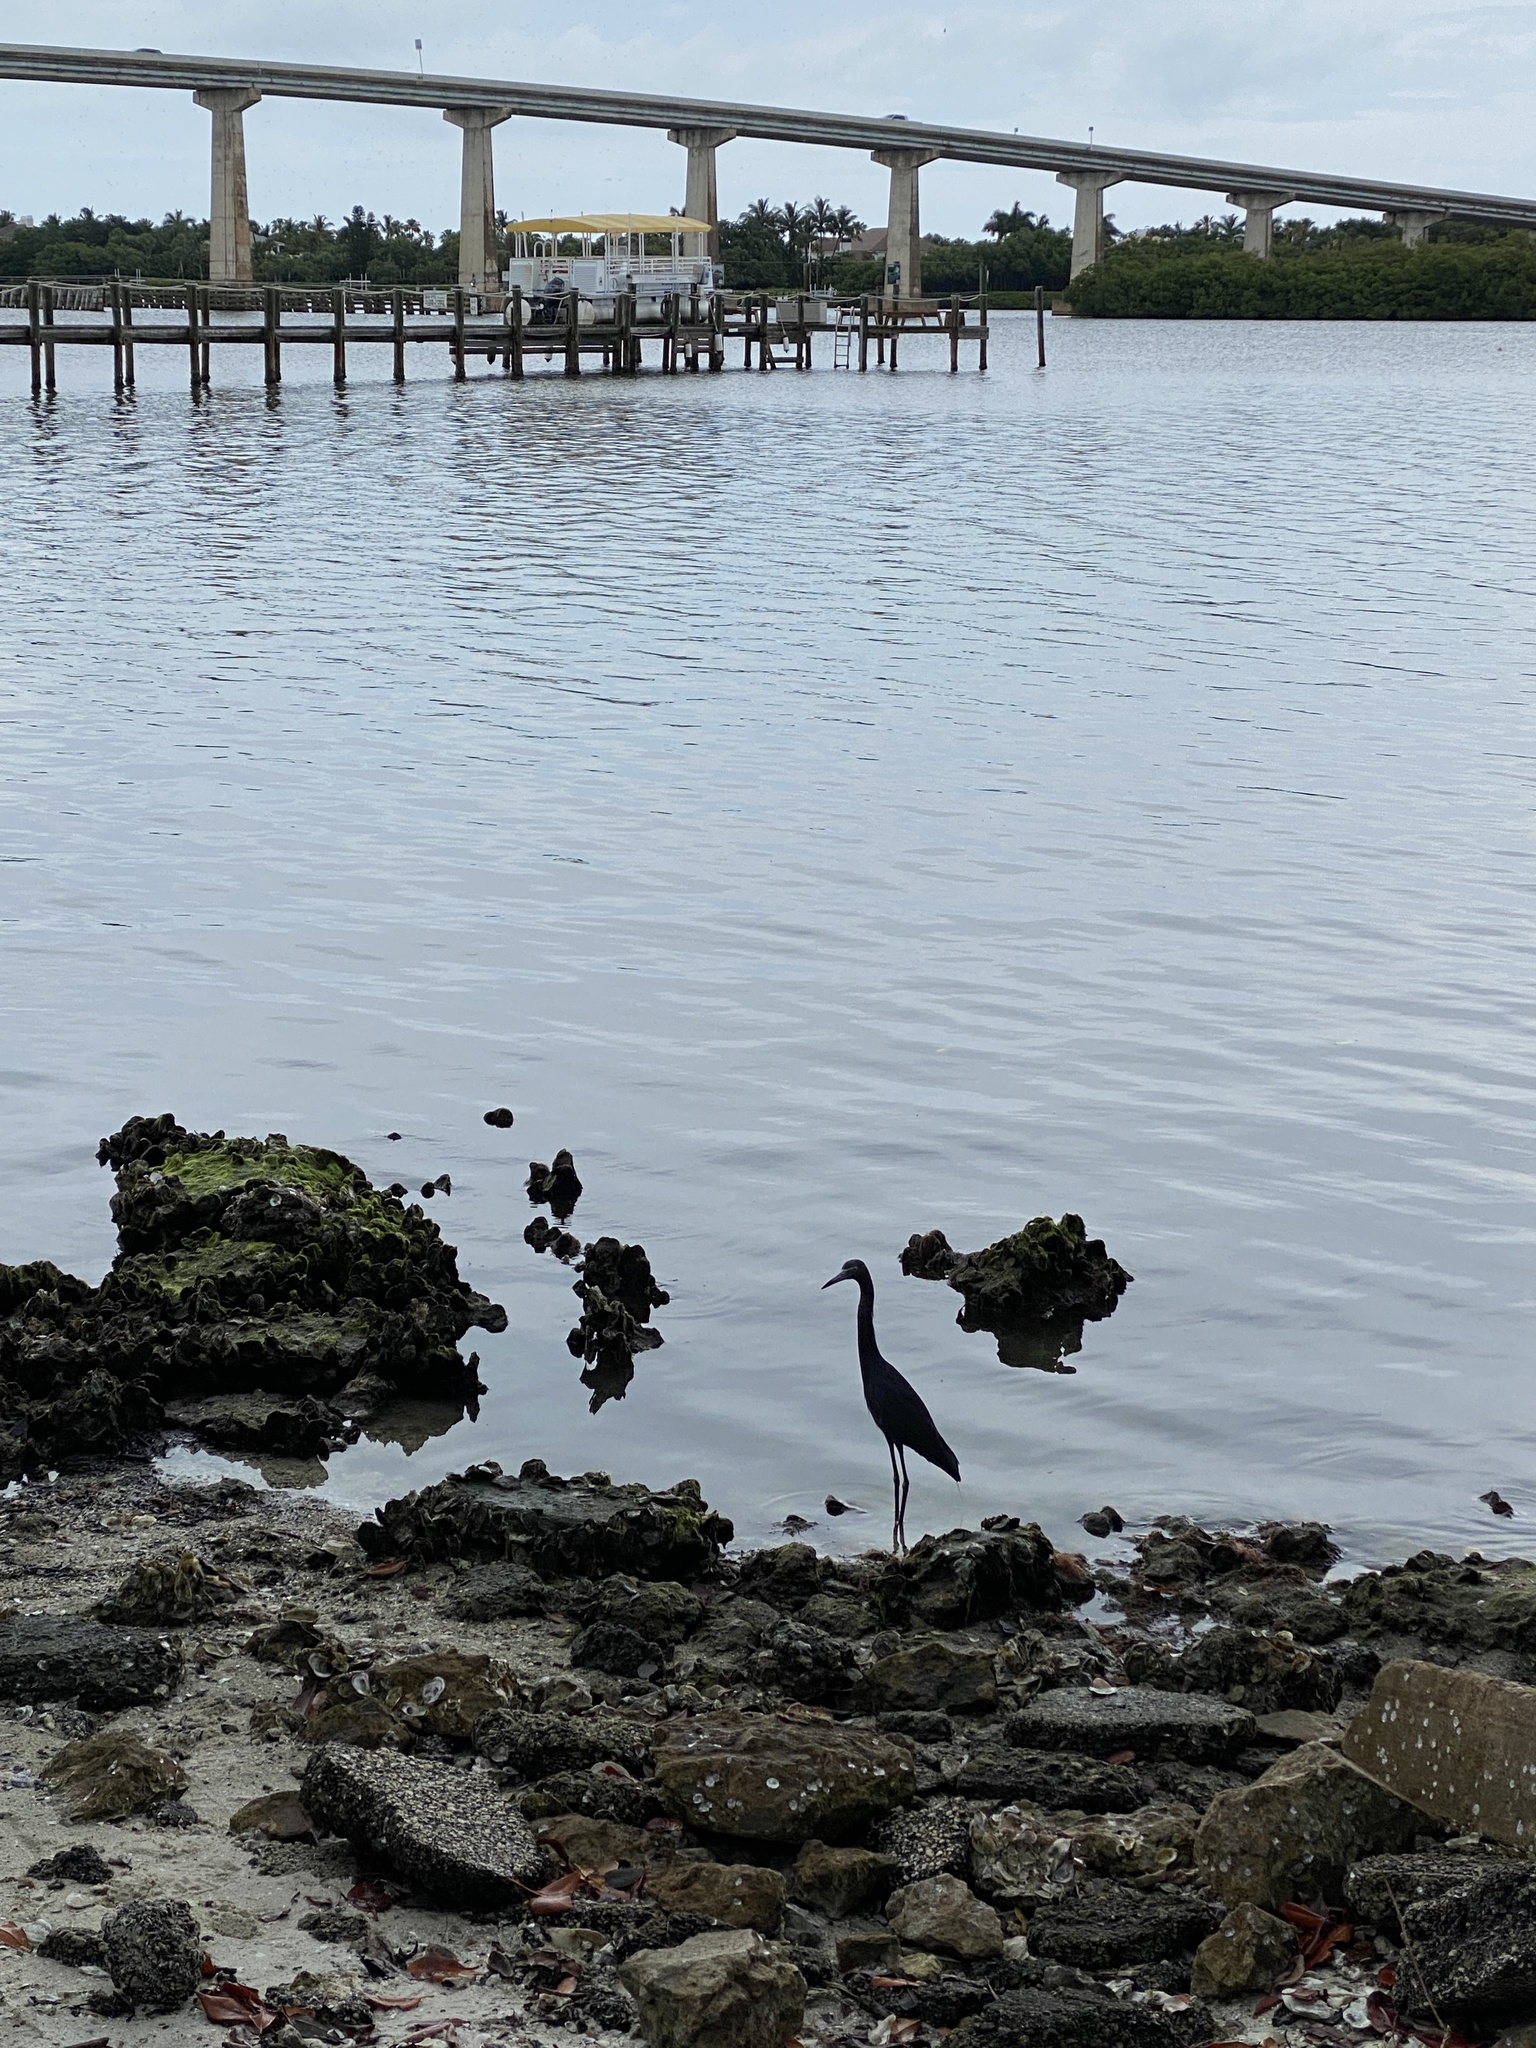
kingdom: Animalia
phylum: Chordata
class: Aves
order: Pelecaniformes
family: Ardeidae
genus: Egretta
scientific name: Egretta caerulea
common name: Little blue heron
